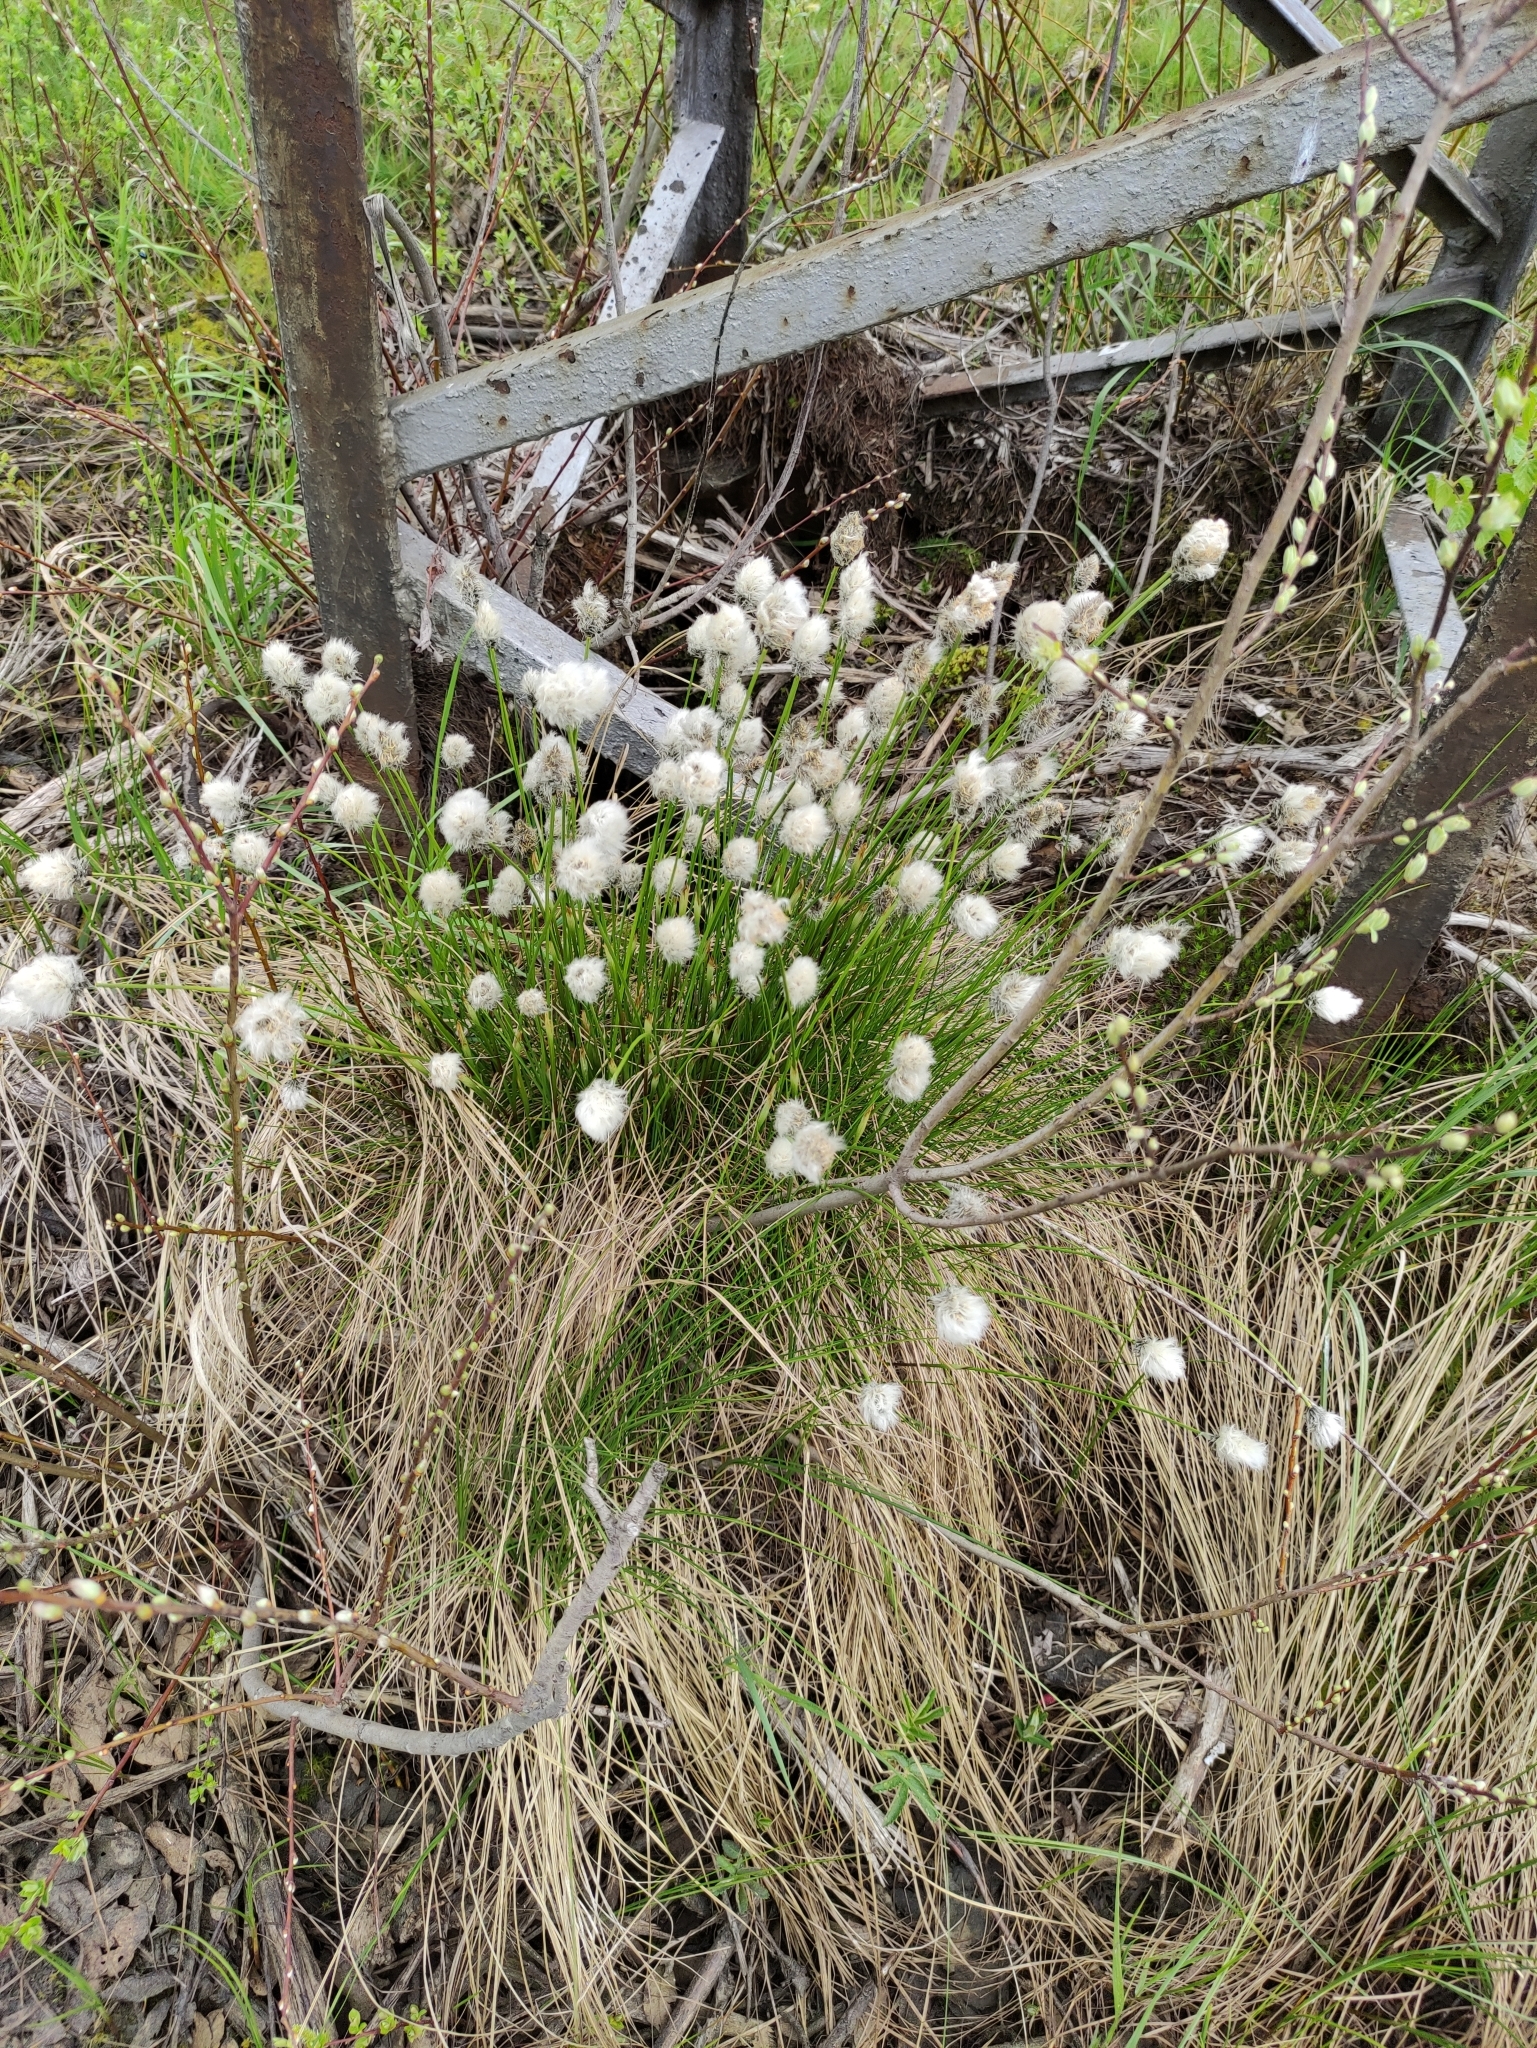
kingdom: Plantae
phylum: Tracheophyta
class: Liliopsida
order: Poales
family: Cyperaceae
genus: Eriophorum
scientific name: Eriophorum vaginatum
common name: Hare's-tail cottongrass
